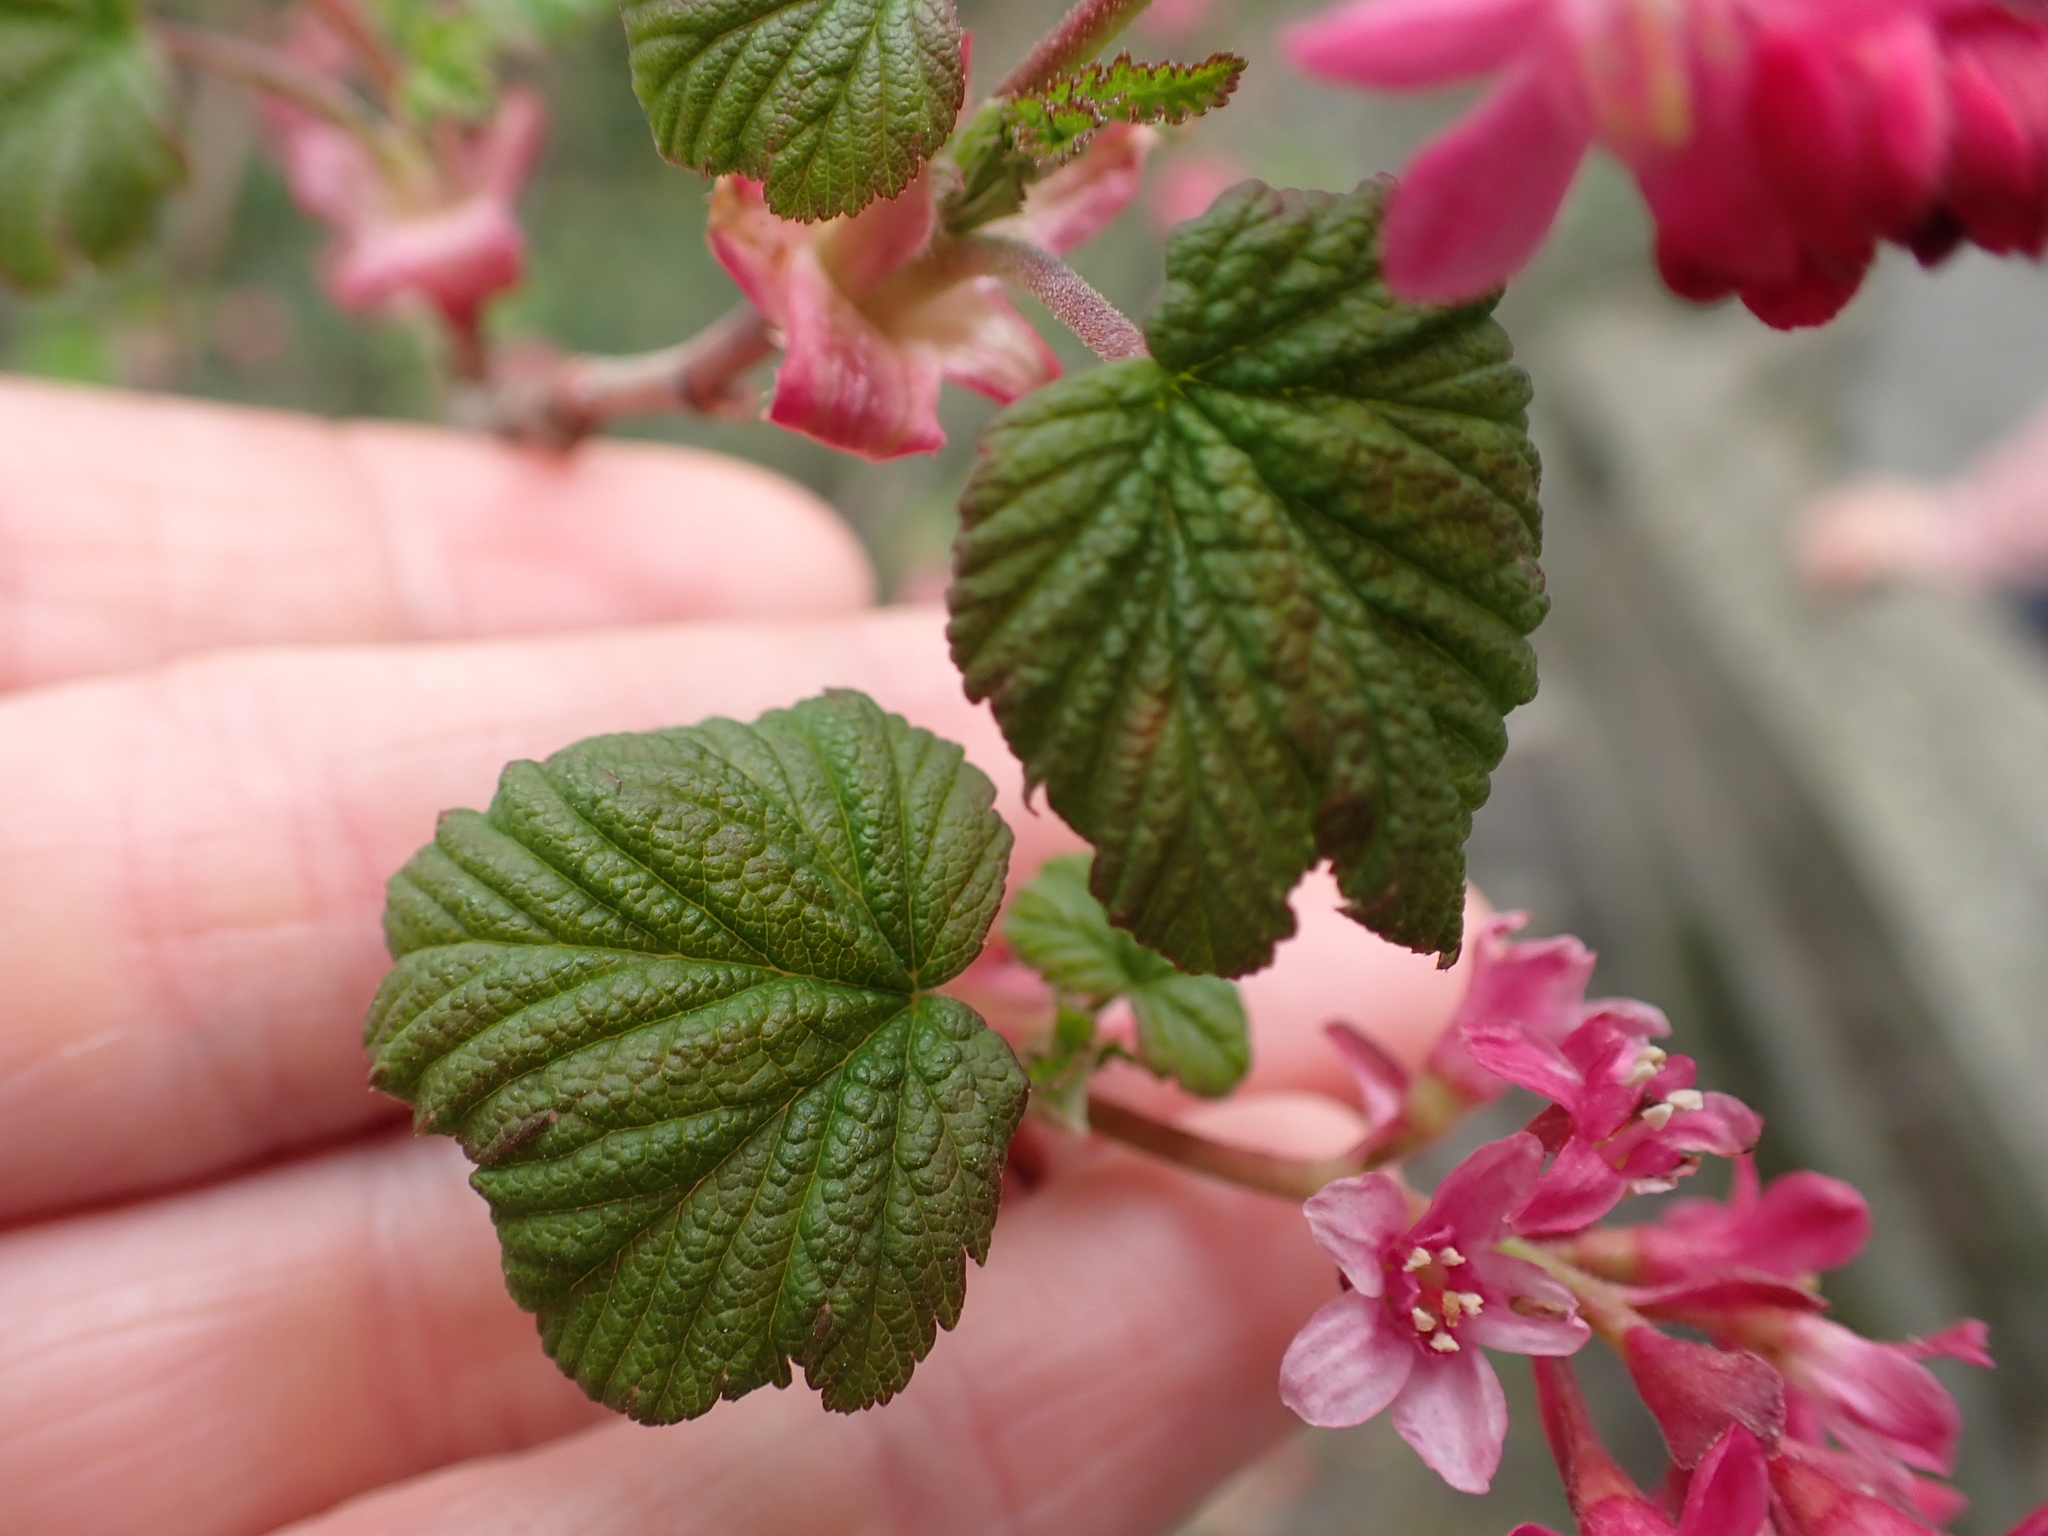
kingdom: Plantae
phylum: Tracheophyta
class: Magnoliopsida
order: Saxifragales
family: Grossulariaceae
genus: Ribes
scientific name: Ribes sanguineum
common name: Flowering currant
